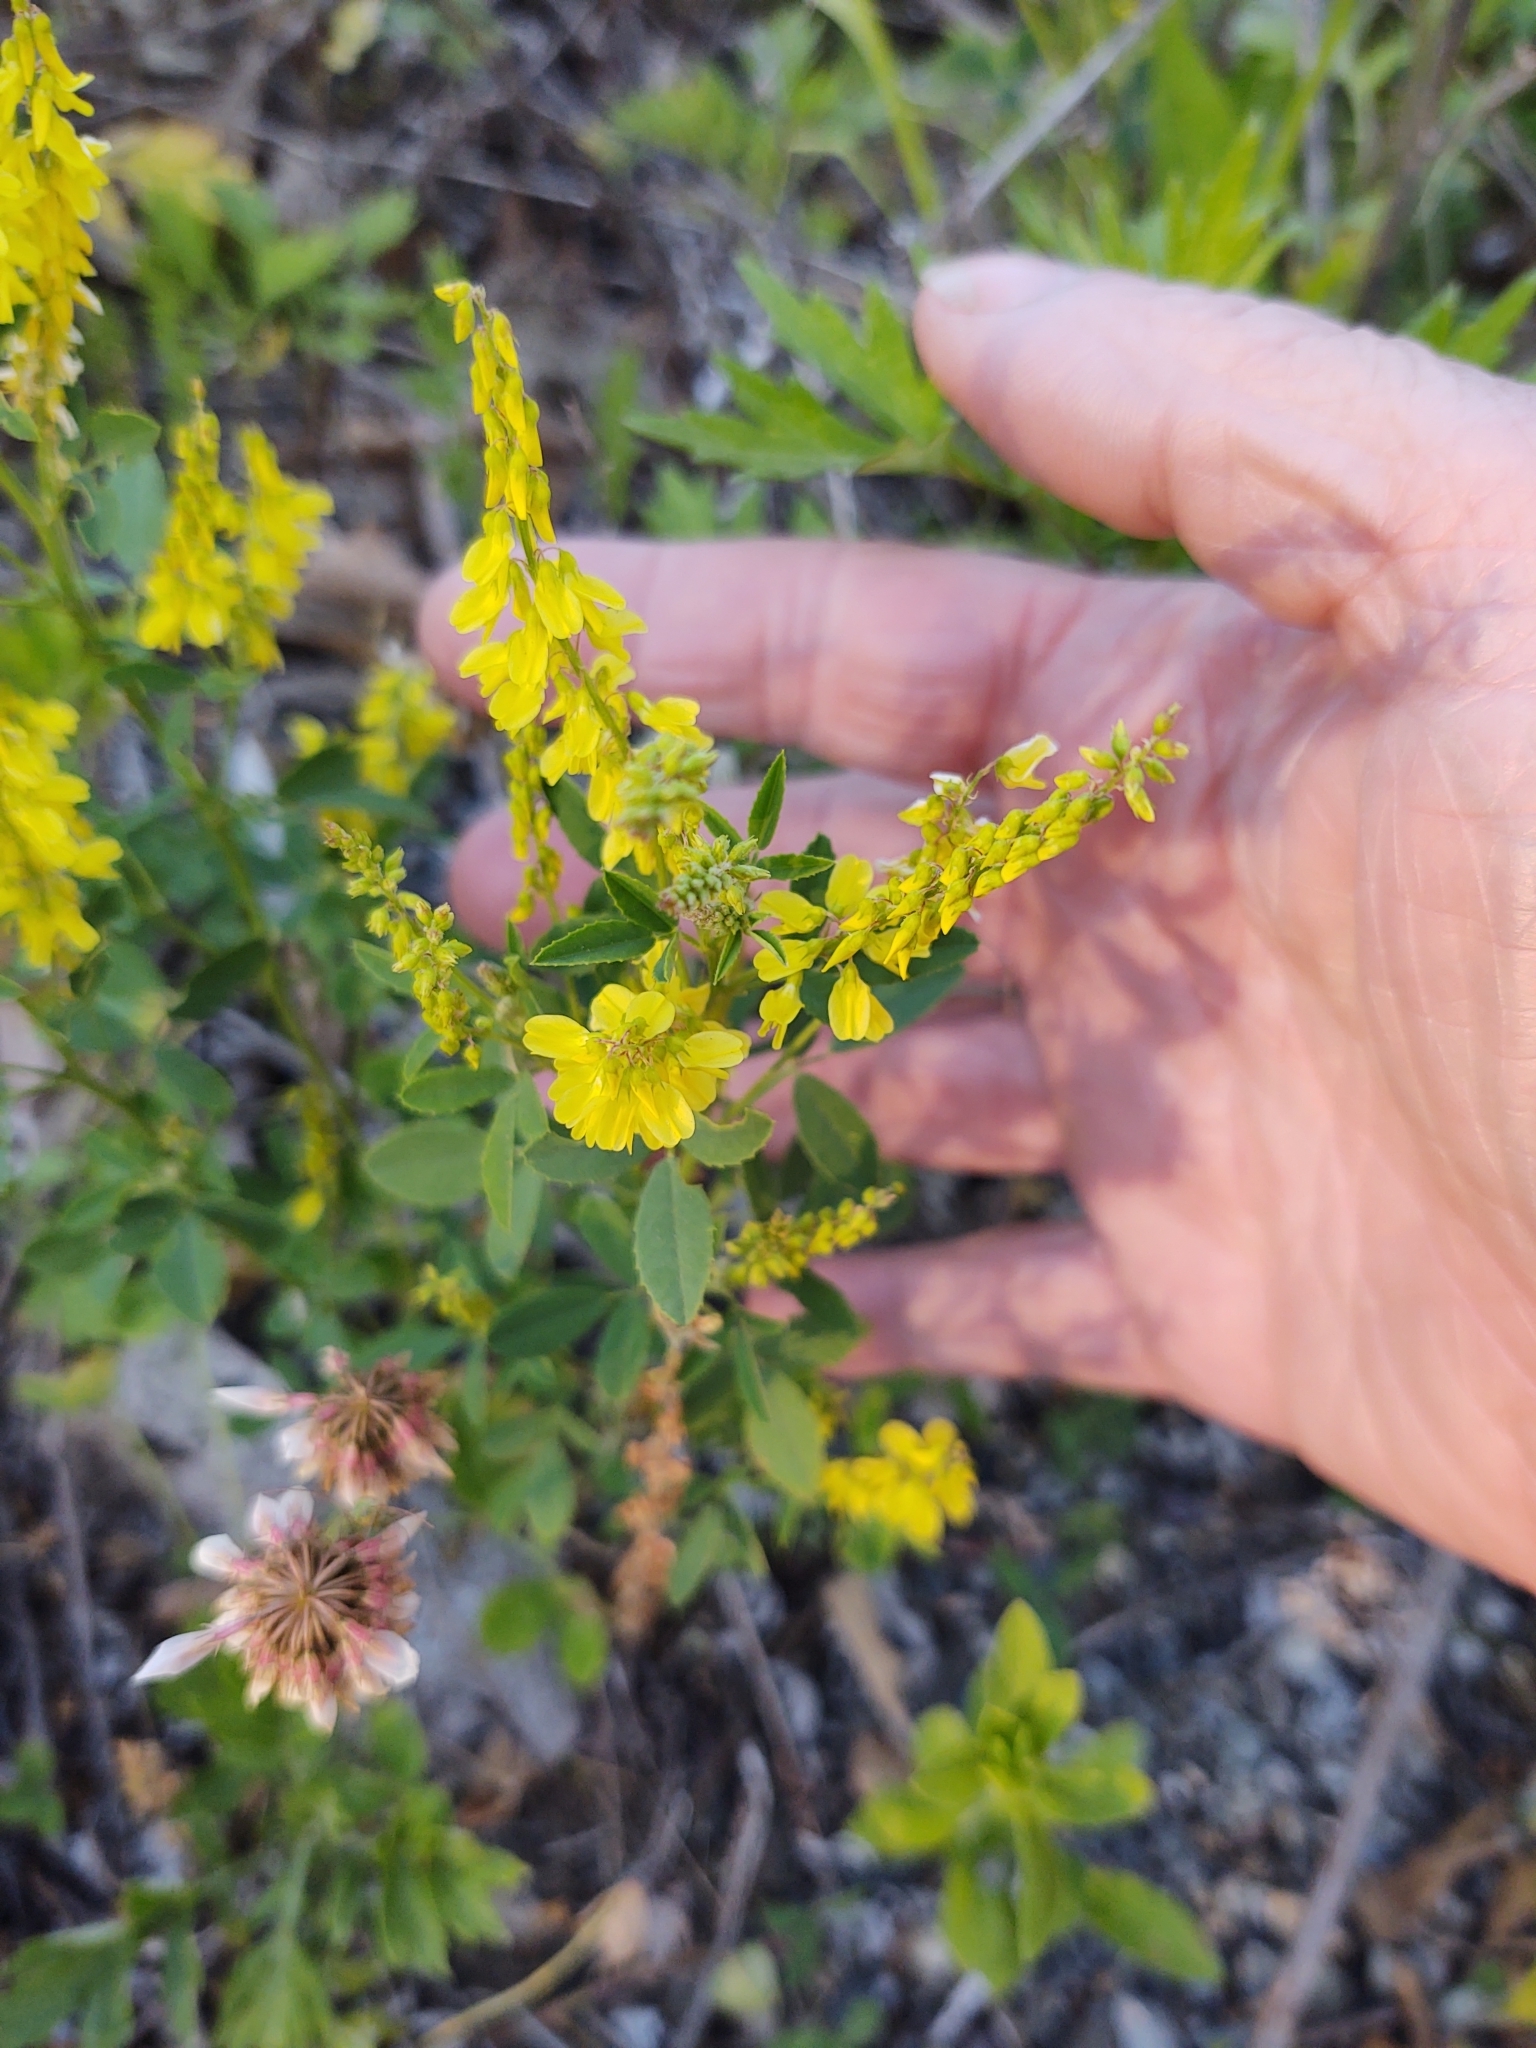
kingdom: Plantae
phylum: Tracheophyta
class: Magnoliopsida
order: Fabales
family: Fabaceae
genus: Melilotus
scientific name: Melilotus officinalis
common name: Sweetclover
